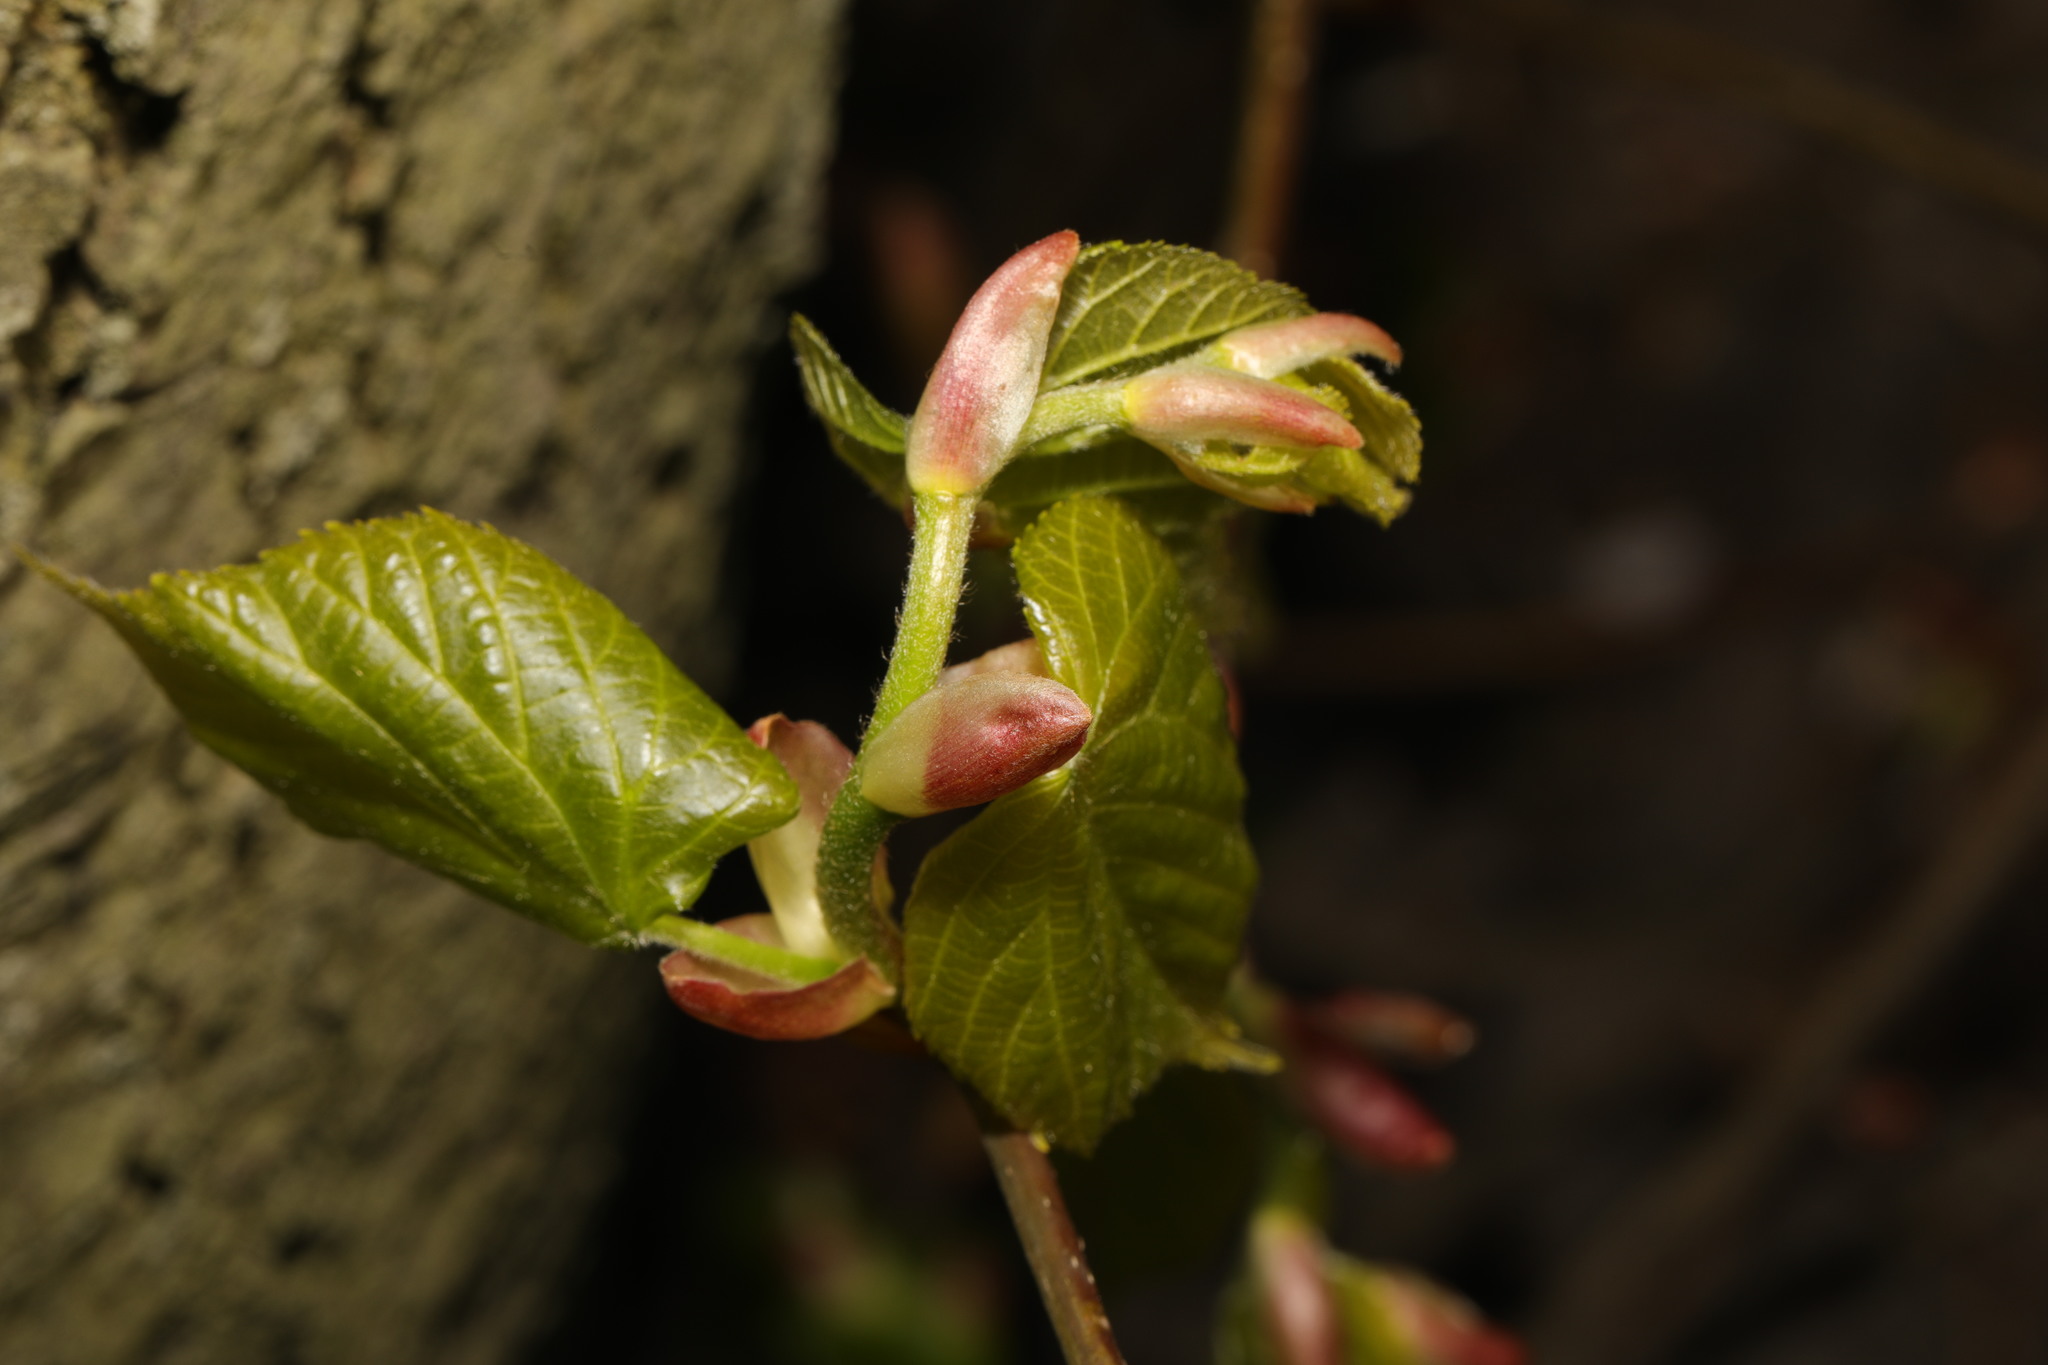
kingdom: Plantae
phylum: Tracheophyta
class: Magnoliopsida
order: Malvales
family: Malvaceae
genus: Tilia
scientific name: Tilia europaea
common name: European linden
